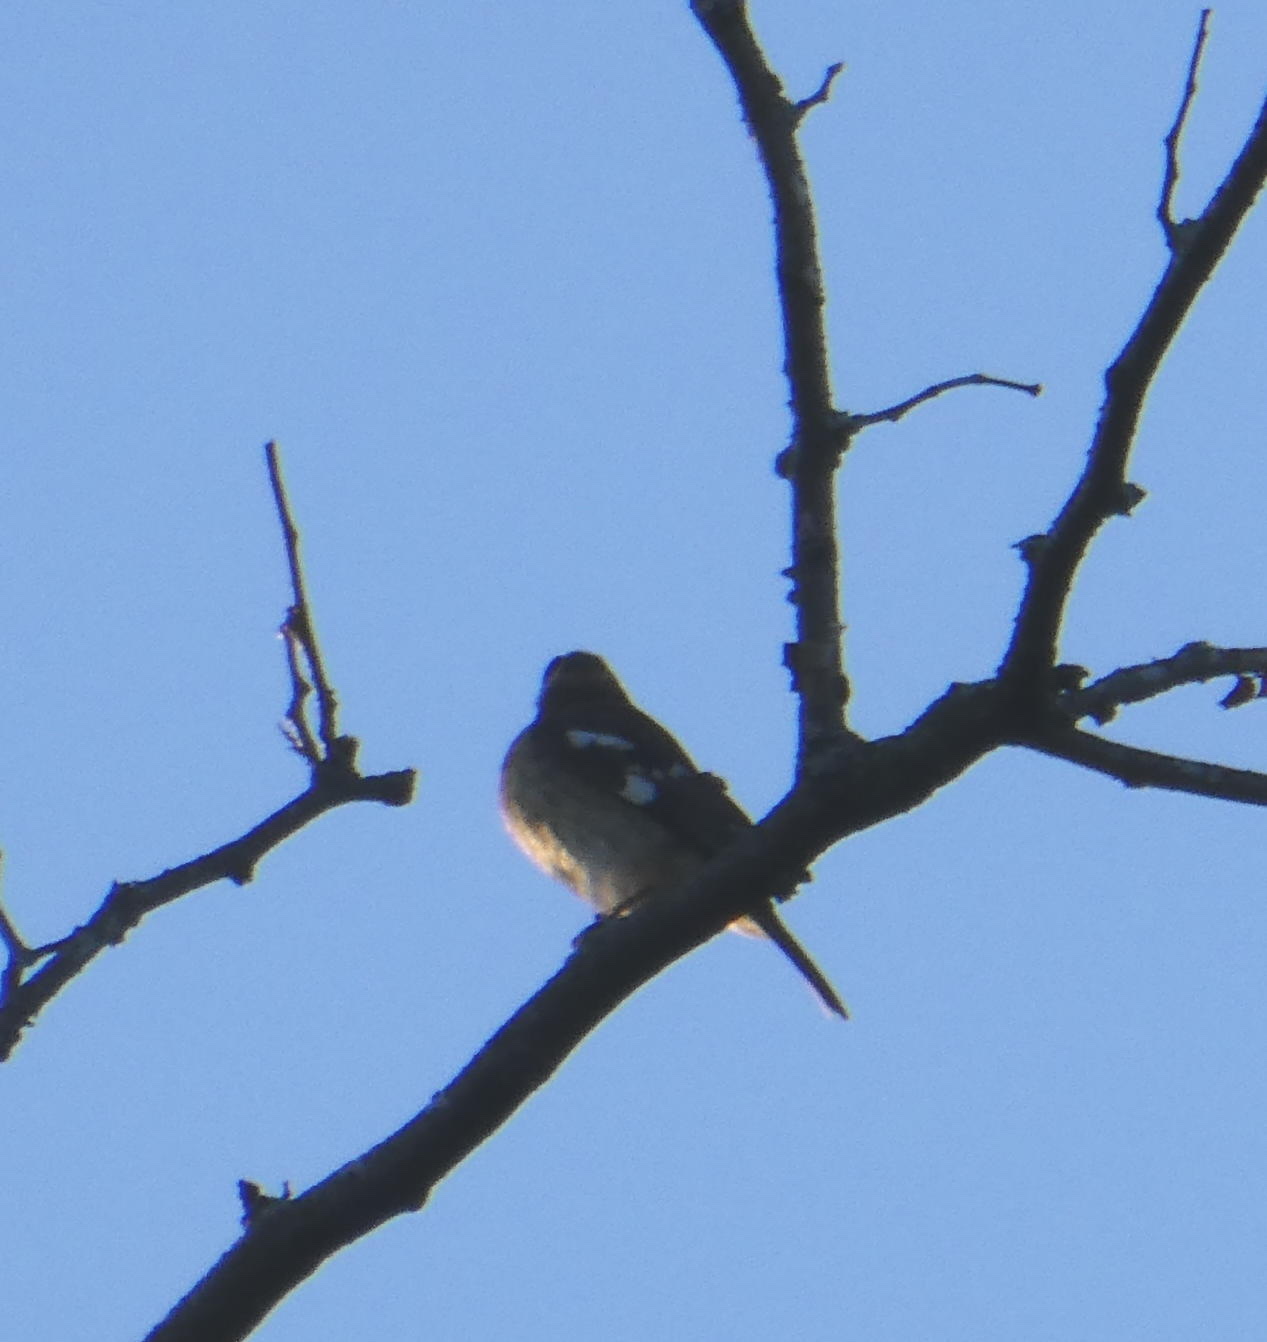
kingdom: Animalia
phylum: Chordata
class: Aves
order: Passeriformes
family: Cardinalidae
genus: Pheucticus
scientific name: Pheucticus ludovicianus
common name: Rose-breasted grosbeak
